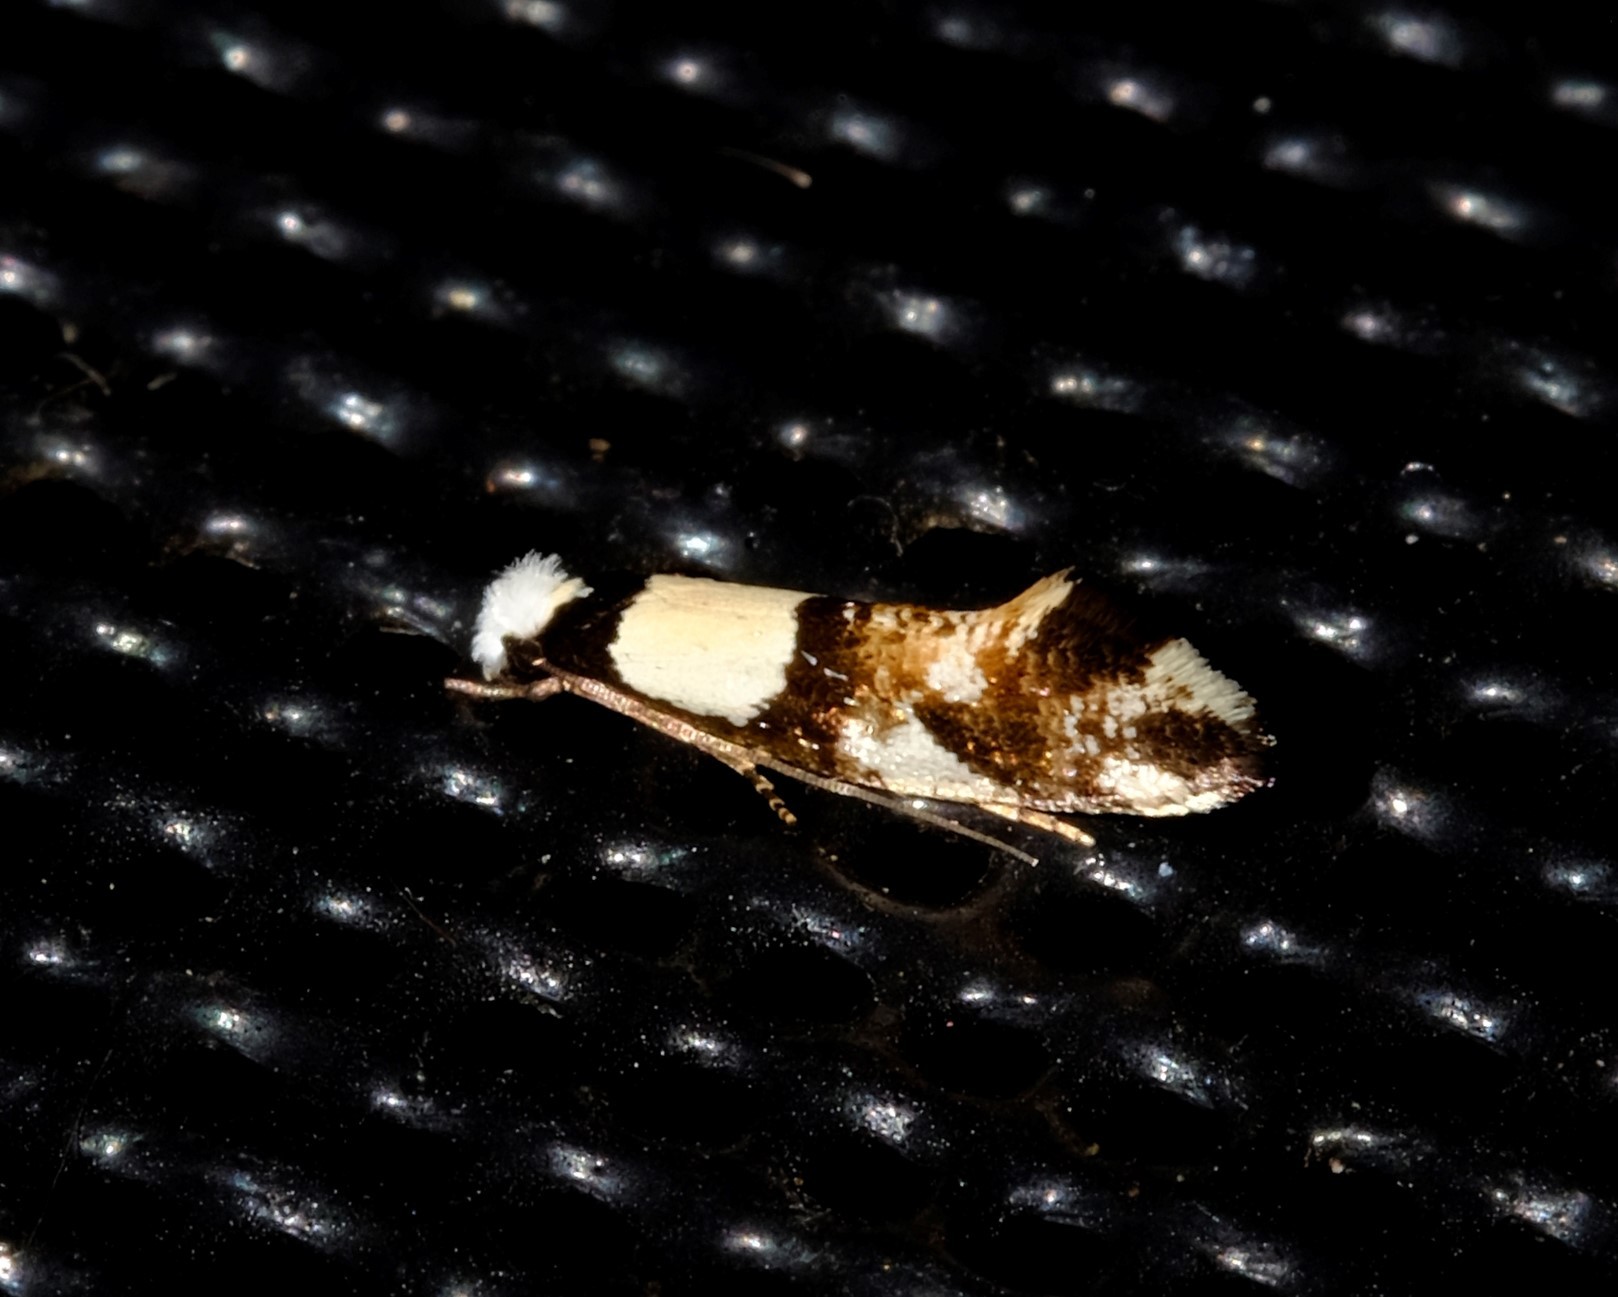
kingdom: Animalia
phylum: Arthropoda
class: Insecta
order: Lepidoptera
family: Tineidae
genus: Monopis
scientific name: Monopis icterogastra
